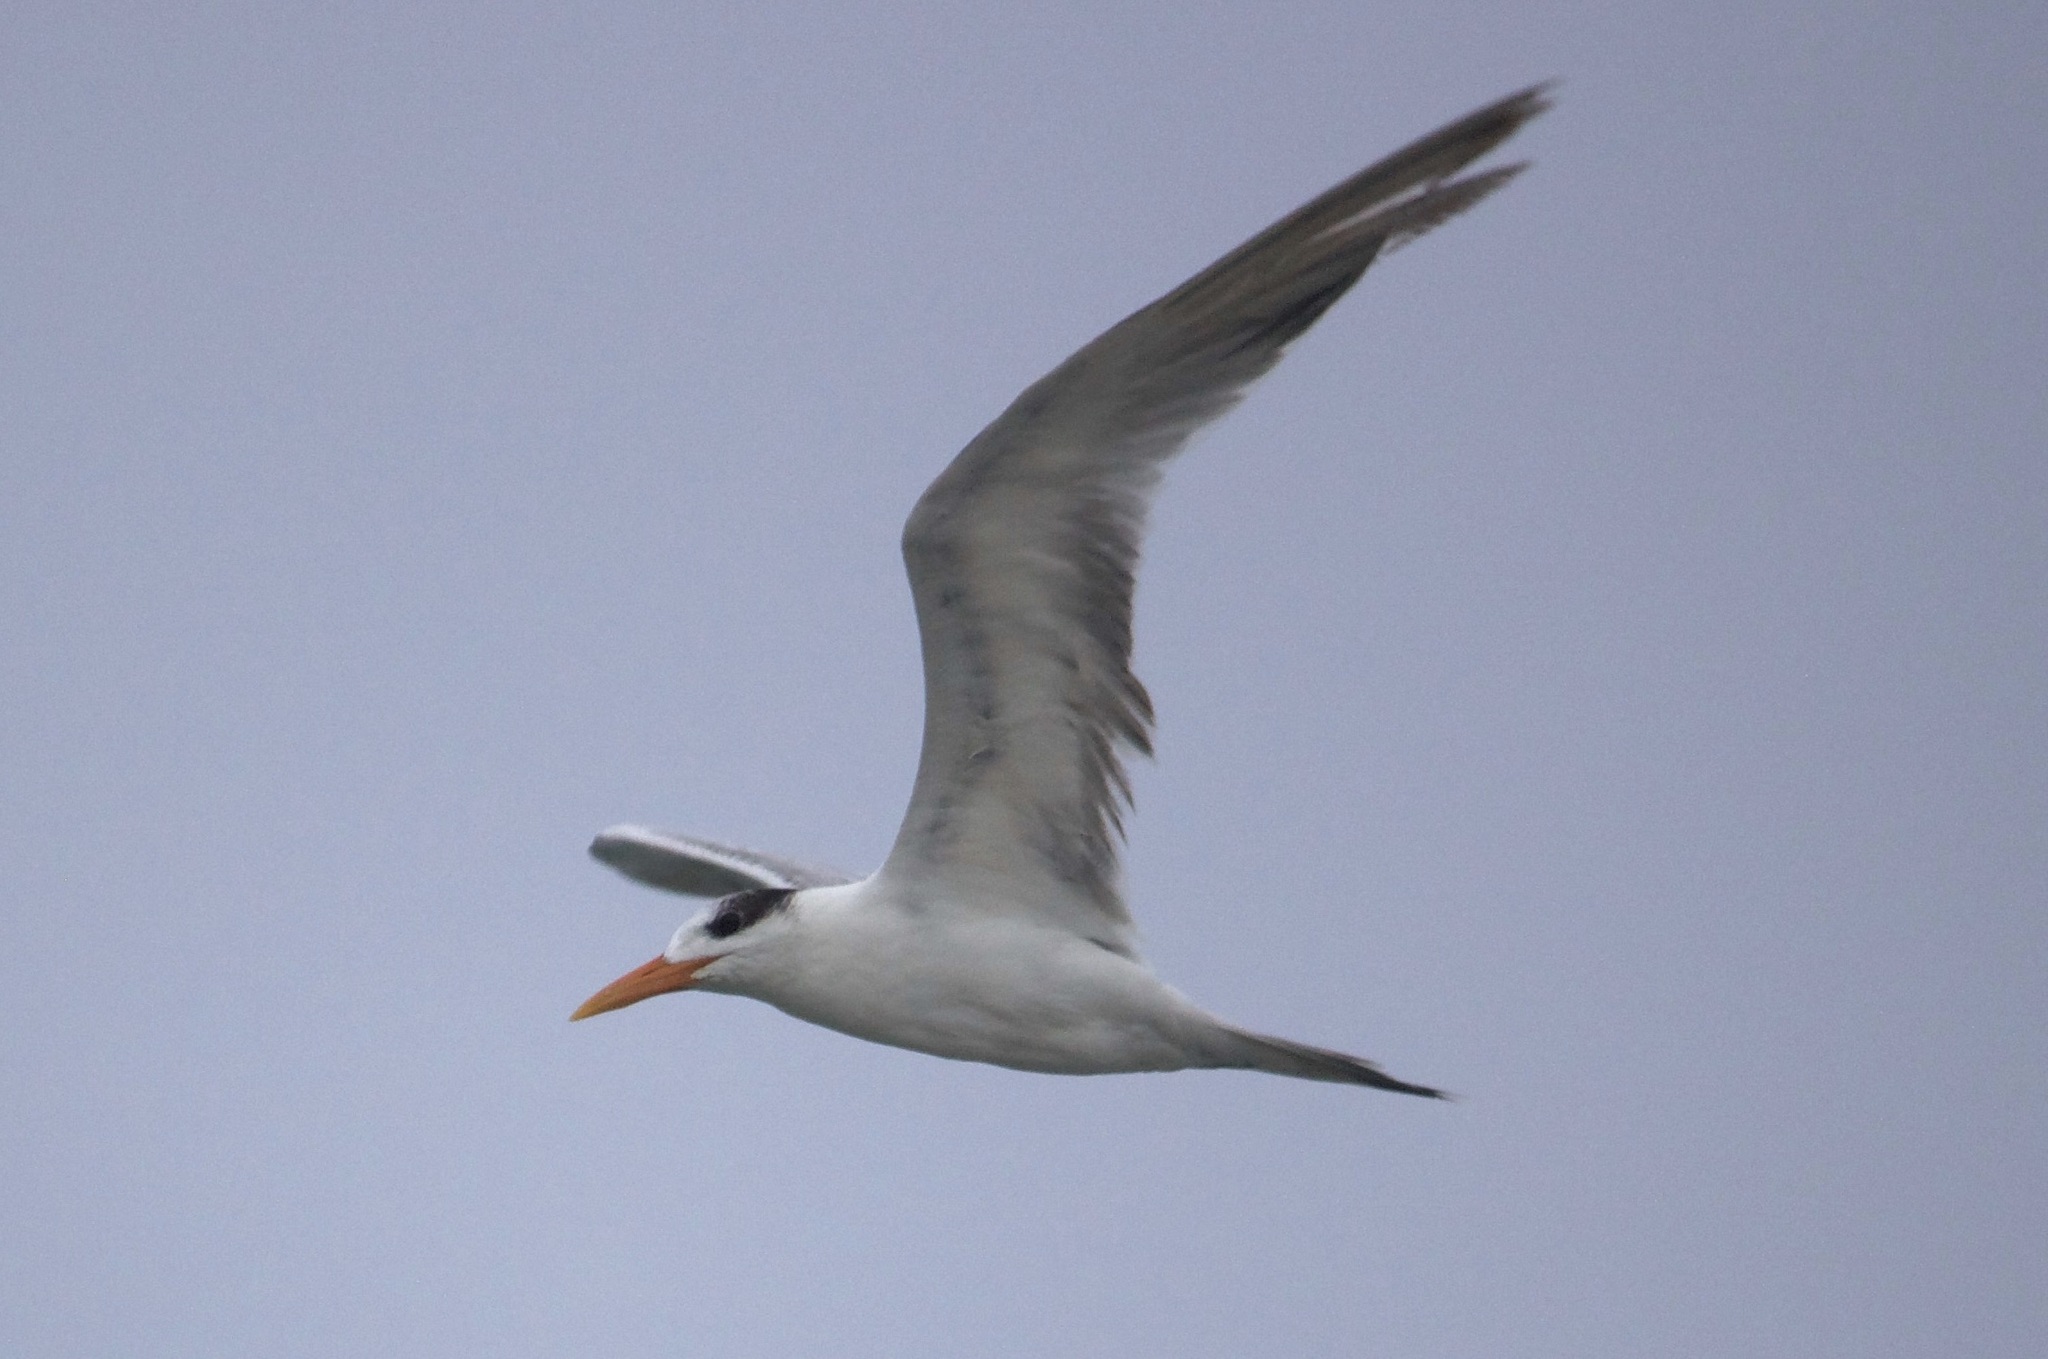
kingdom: Animalia
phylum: Chordata
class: Aves
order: Charadriiformes
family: Laridae
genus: Thalasseus
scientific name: Thalasseus maximus
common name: Royal tern
